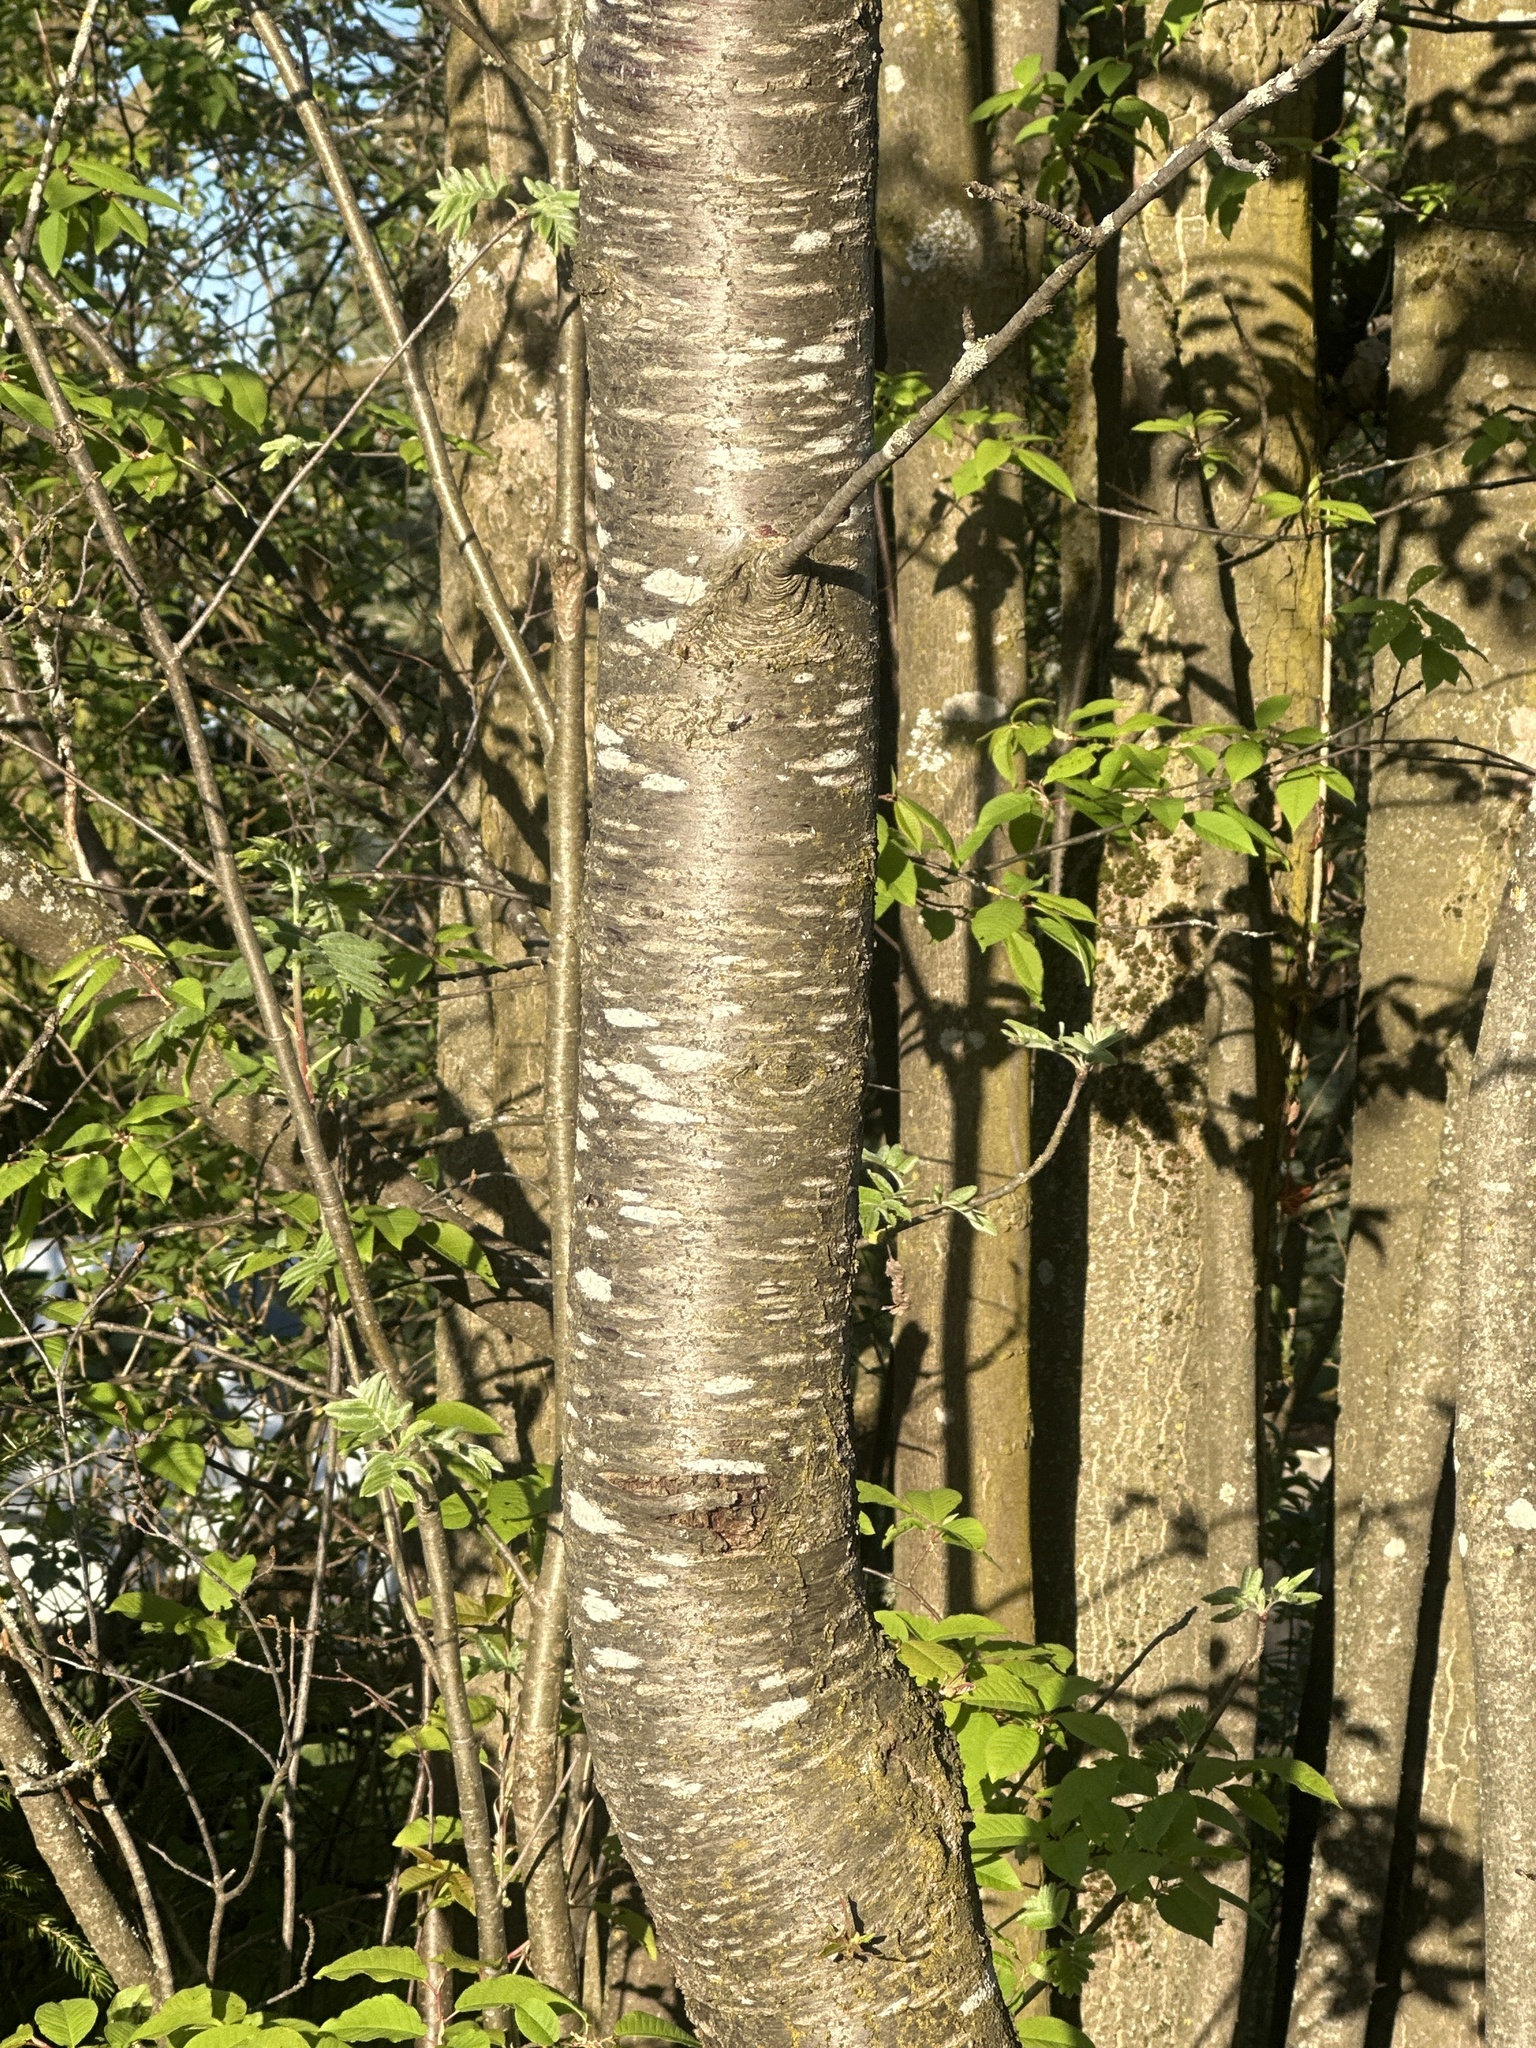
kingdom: Plantae
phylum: Tracheophyta
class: Magnoliopsida
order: Rosales
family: Rosaceae
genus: Prunus
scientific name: Prunus avium
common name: Sweet cherry
